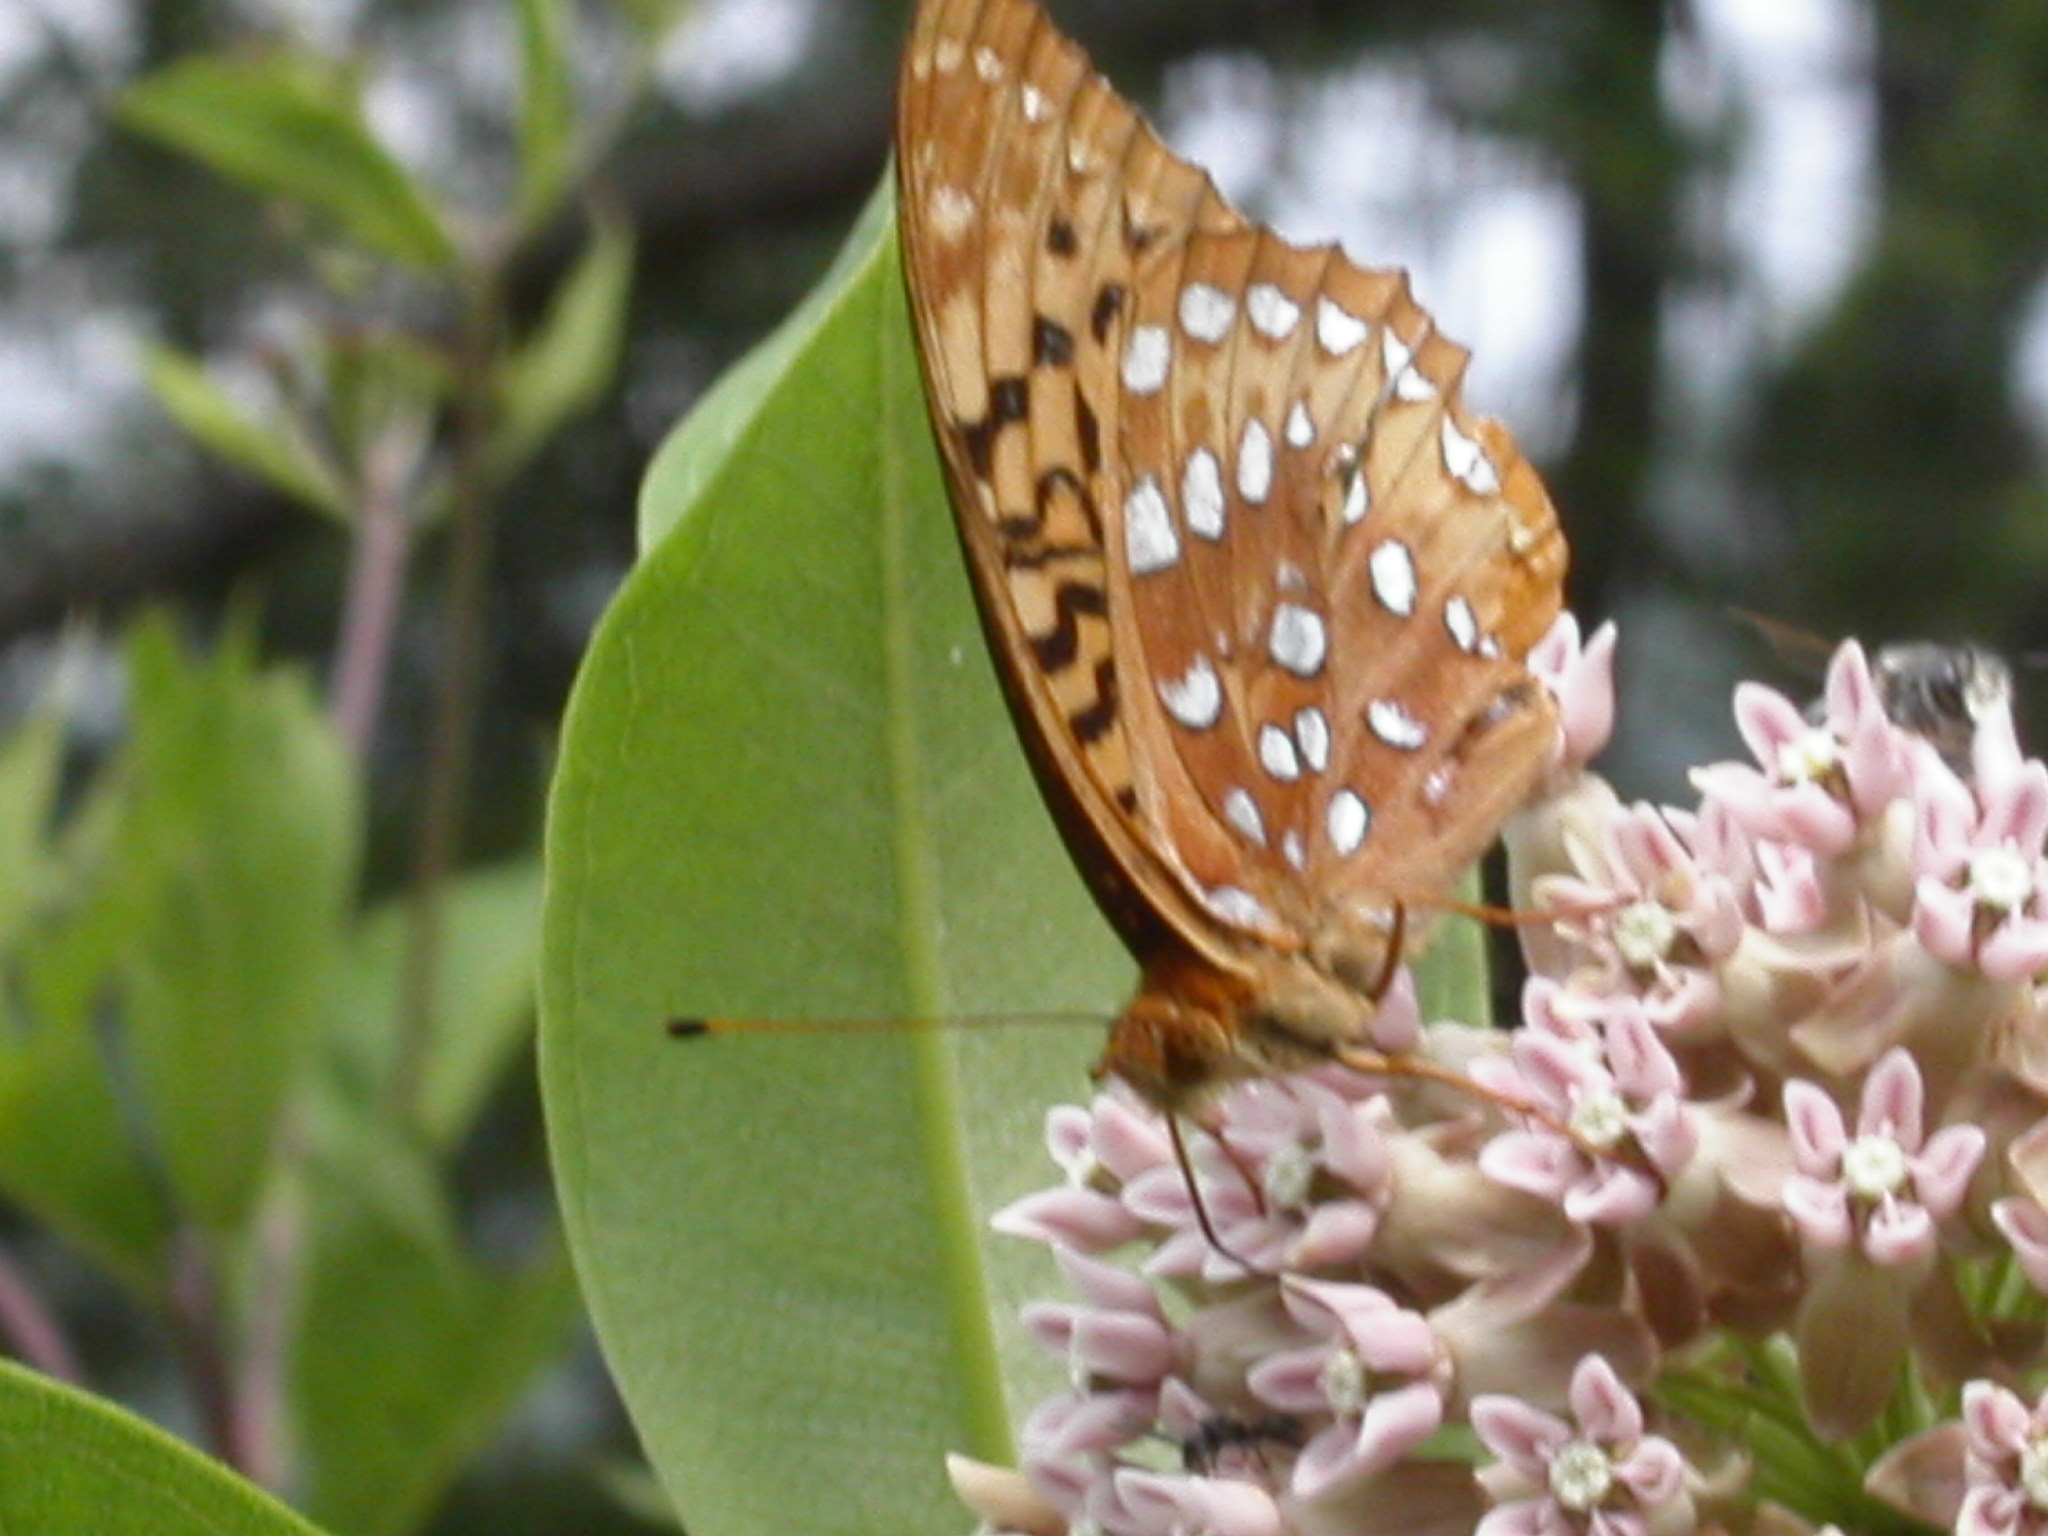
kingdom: Animalia
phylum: Arthropoda
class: Insecta
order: Lepidoptera
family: Nymphalidae
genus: Speyeria
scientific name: Speyeria cybele
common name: Great spangled fritillary
